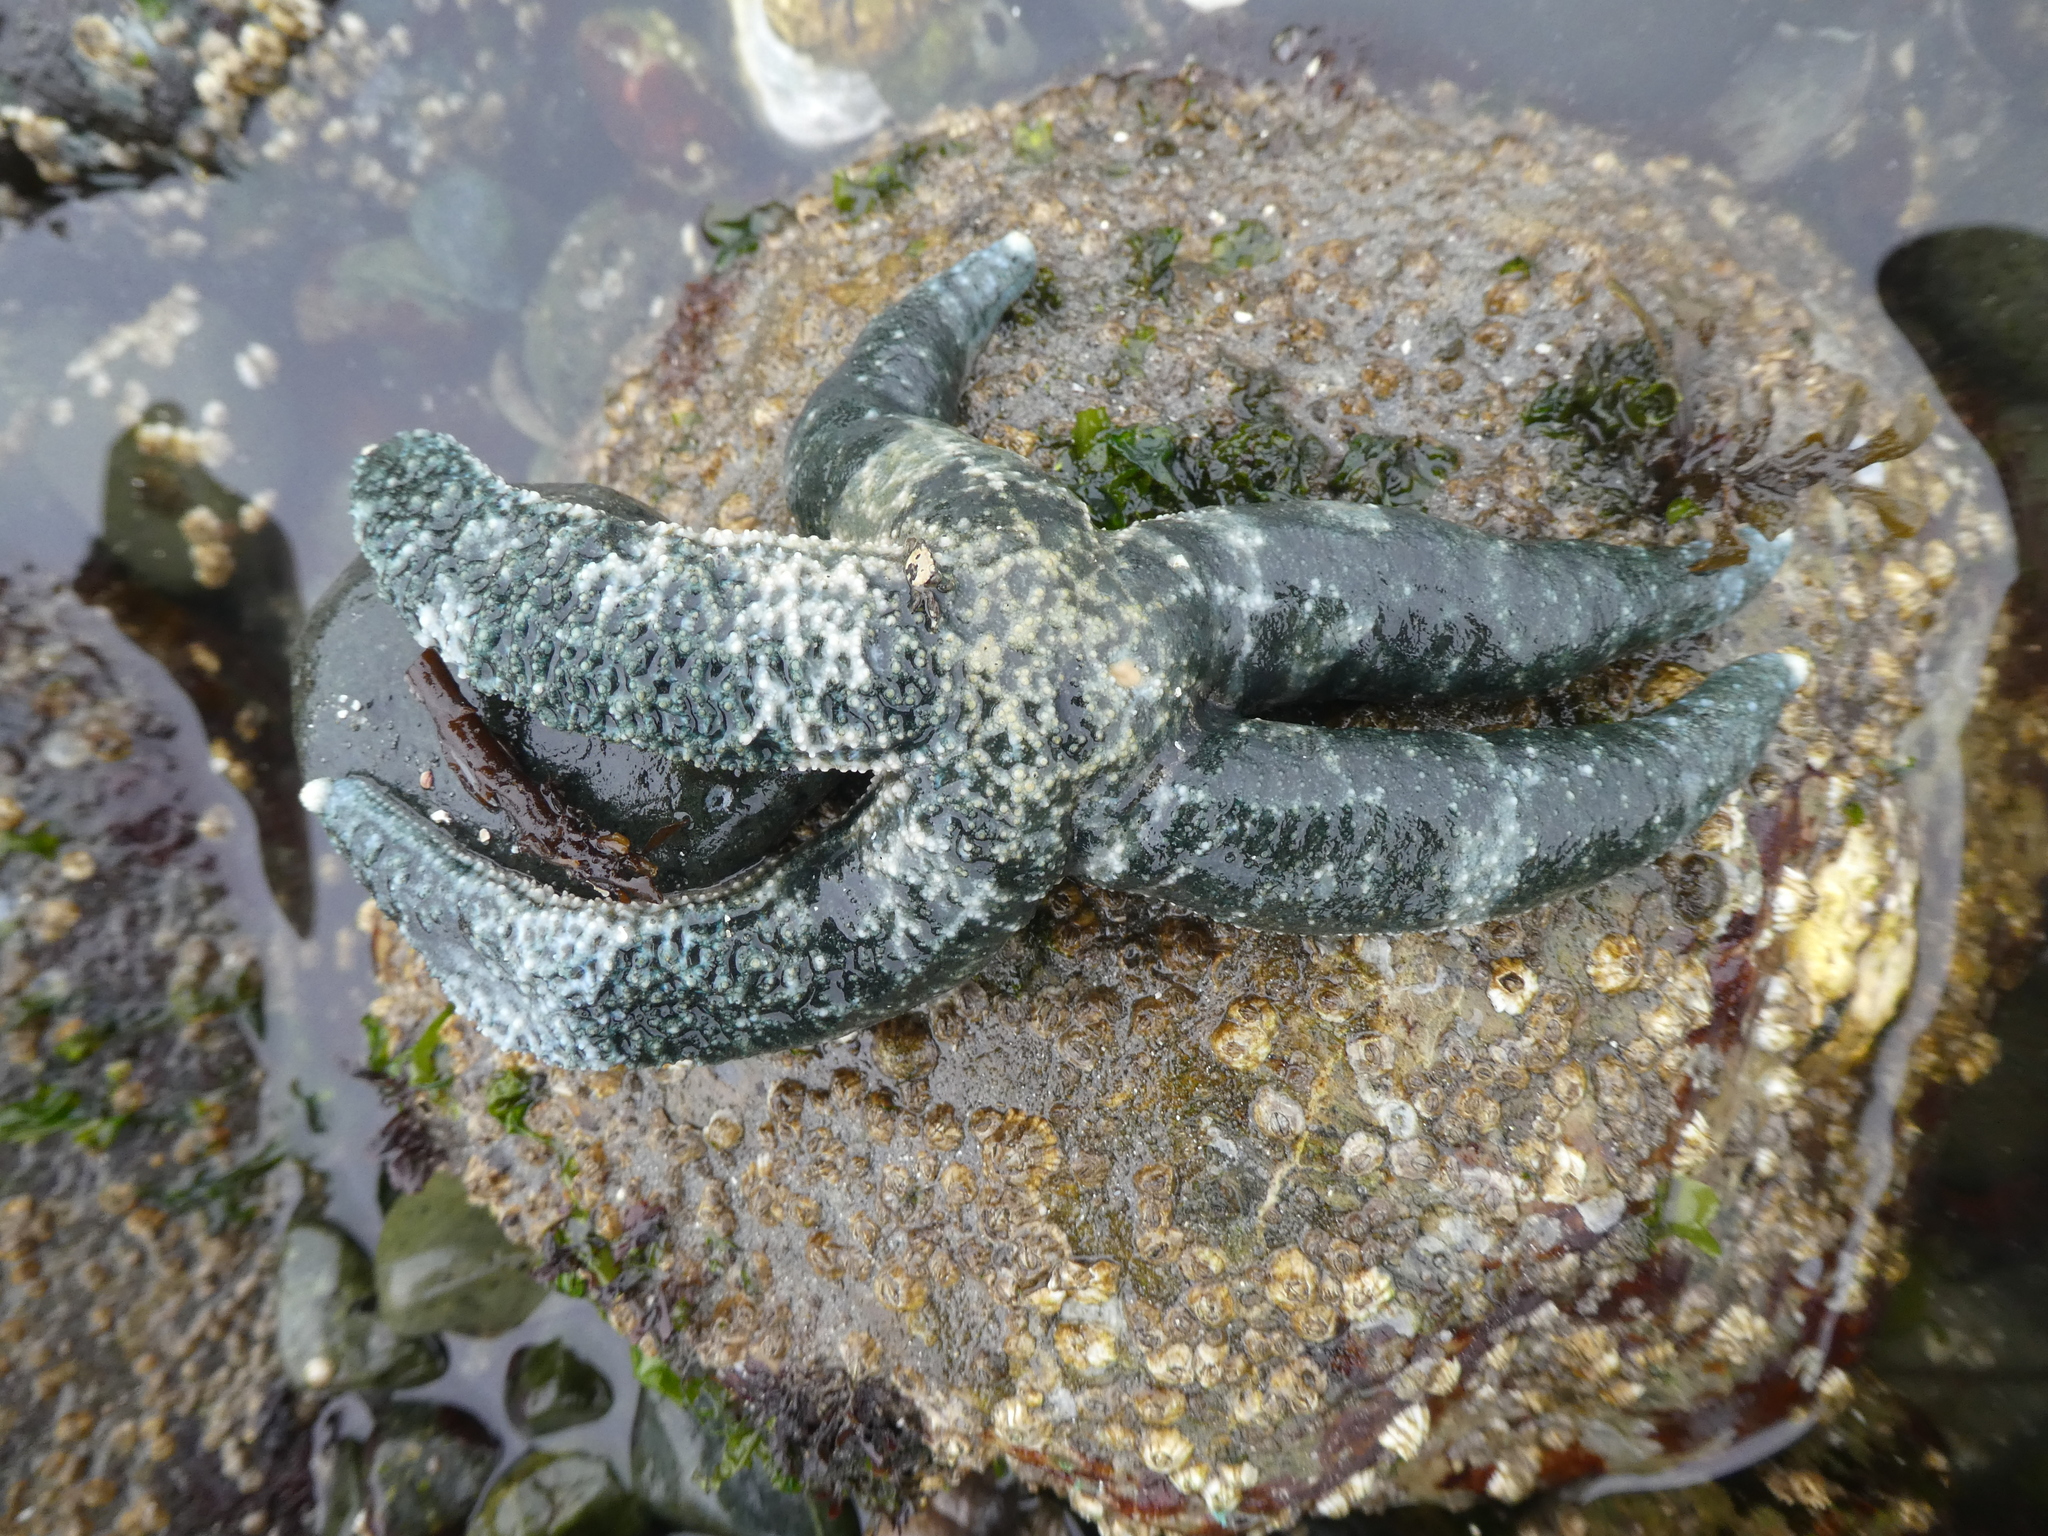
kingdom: Animalia
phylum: Echinodermata
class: Asteroidea
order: Forcipulatida
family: Asteriidae
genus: Evasterias
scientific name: Evasterias troschelii
